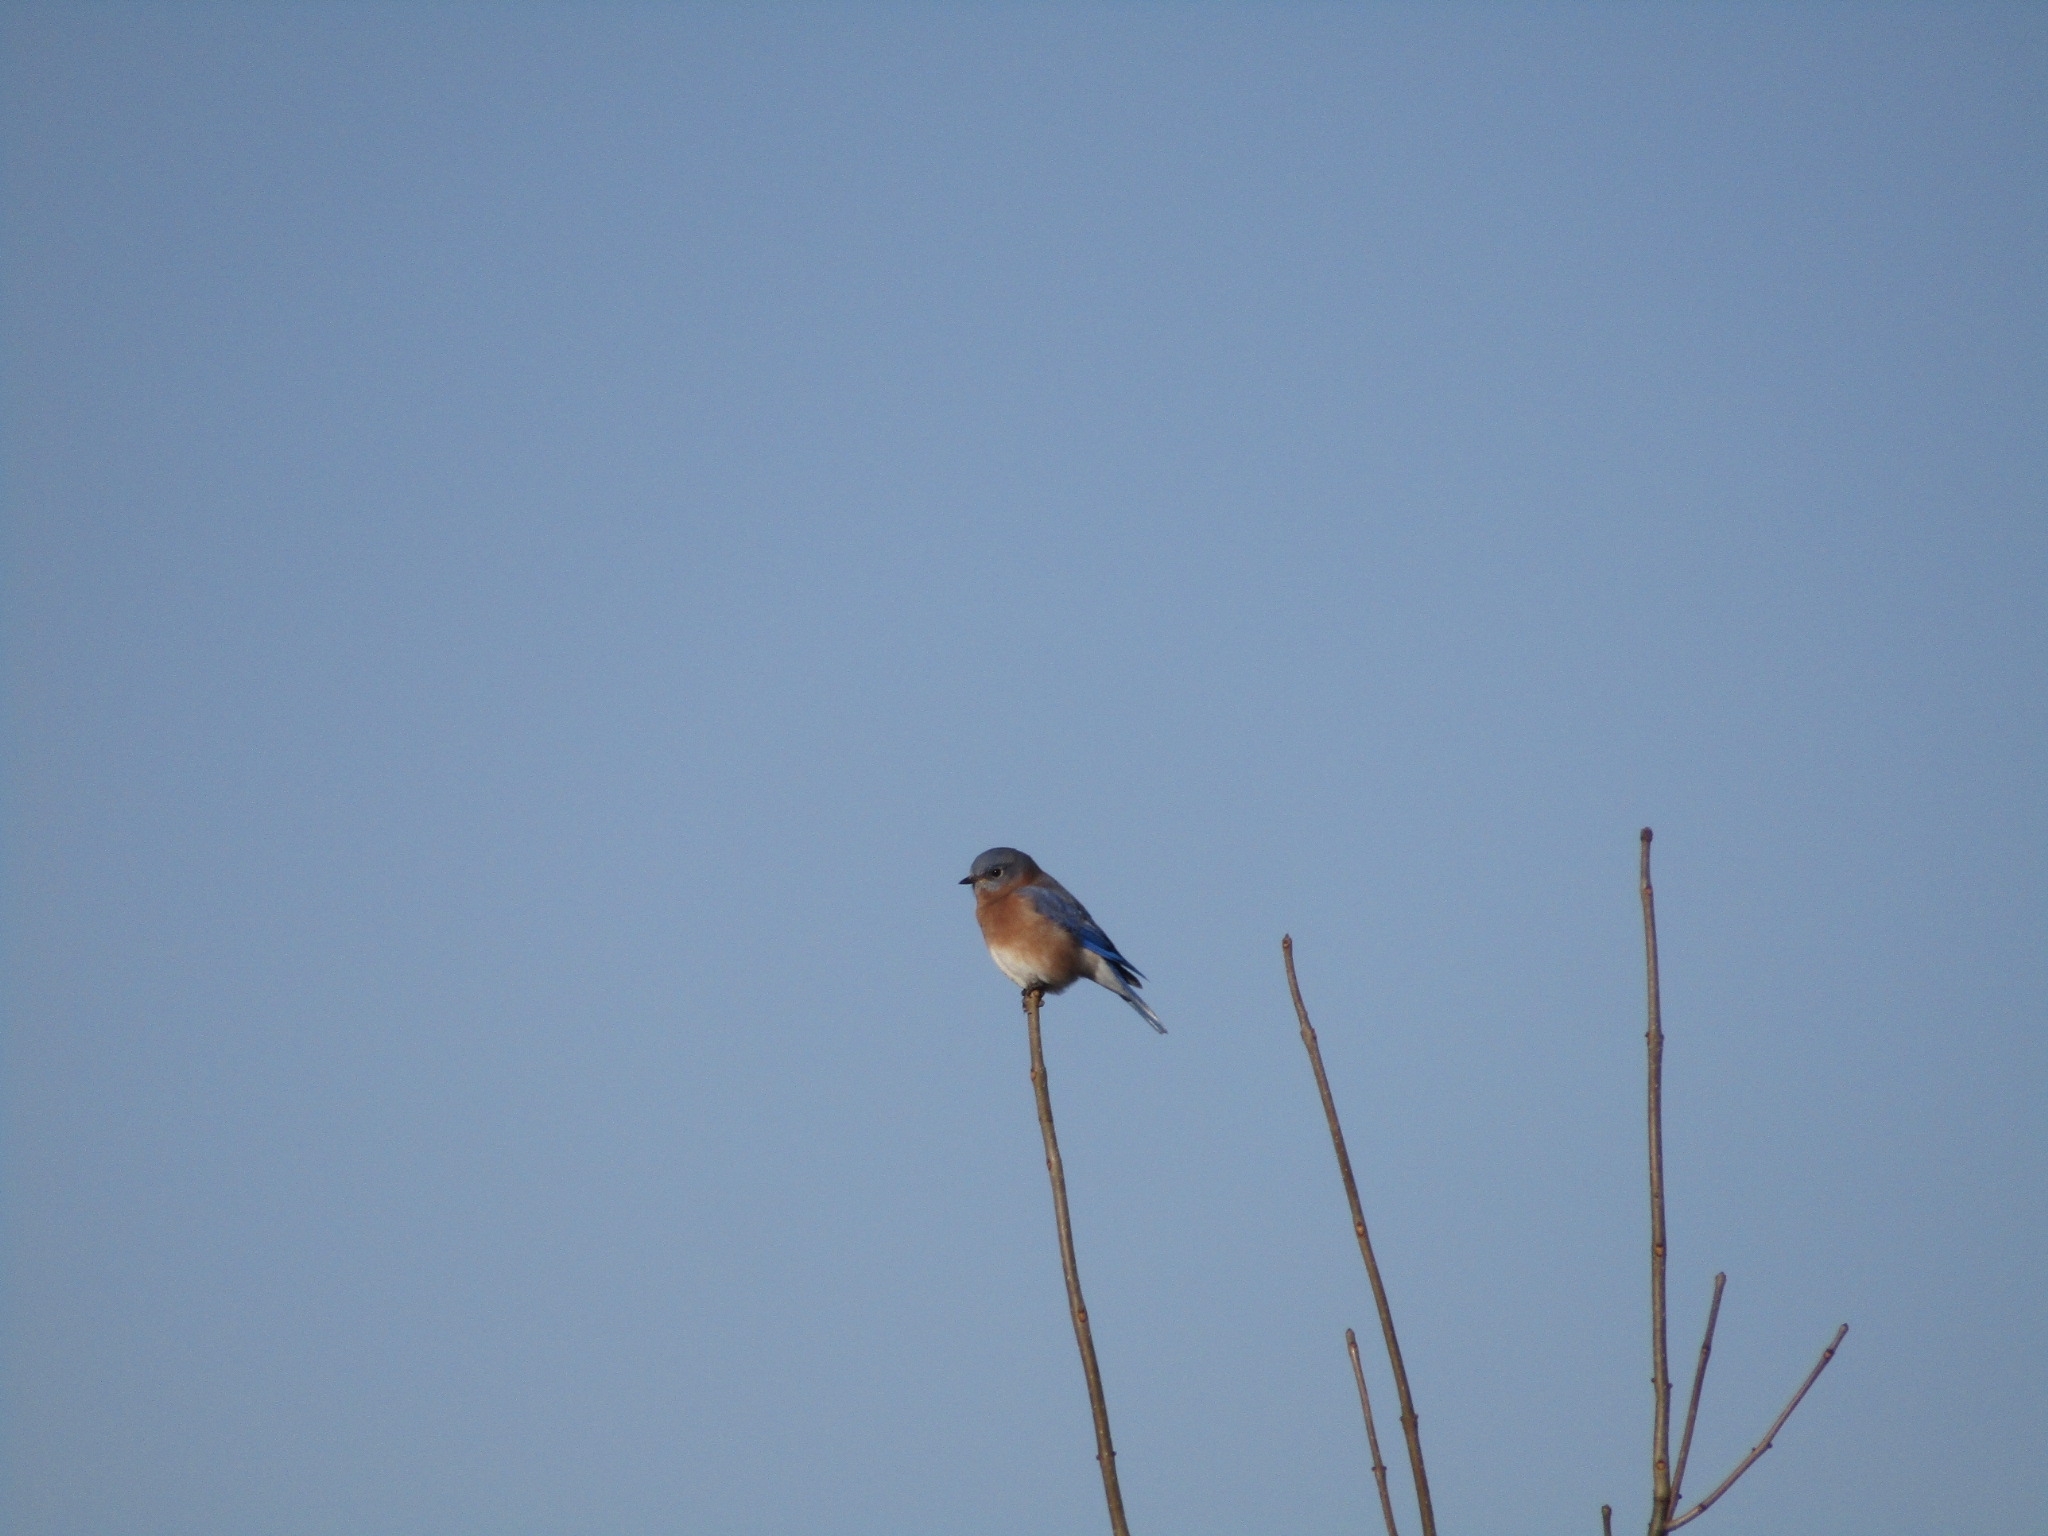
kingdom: Animalia
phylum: Chordata
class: Aves
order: Passeriformes
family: Turdidae
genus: Sialia
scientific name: Sialia sialis
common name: Eastern bluebird
